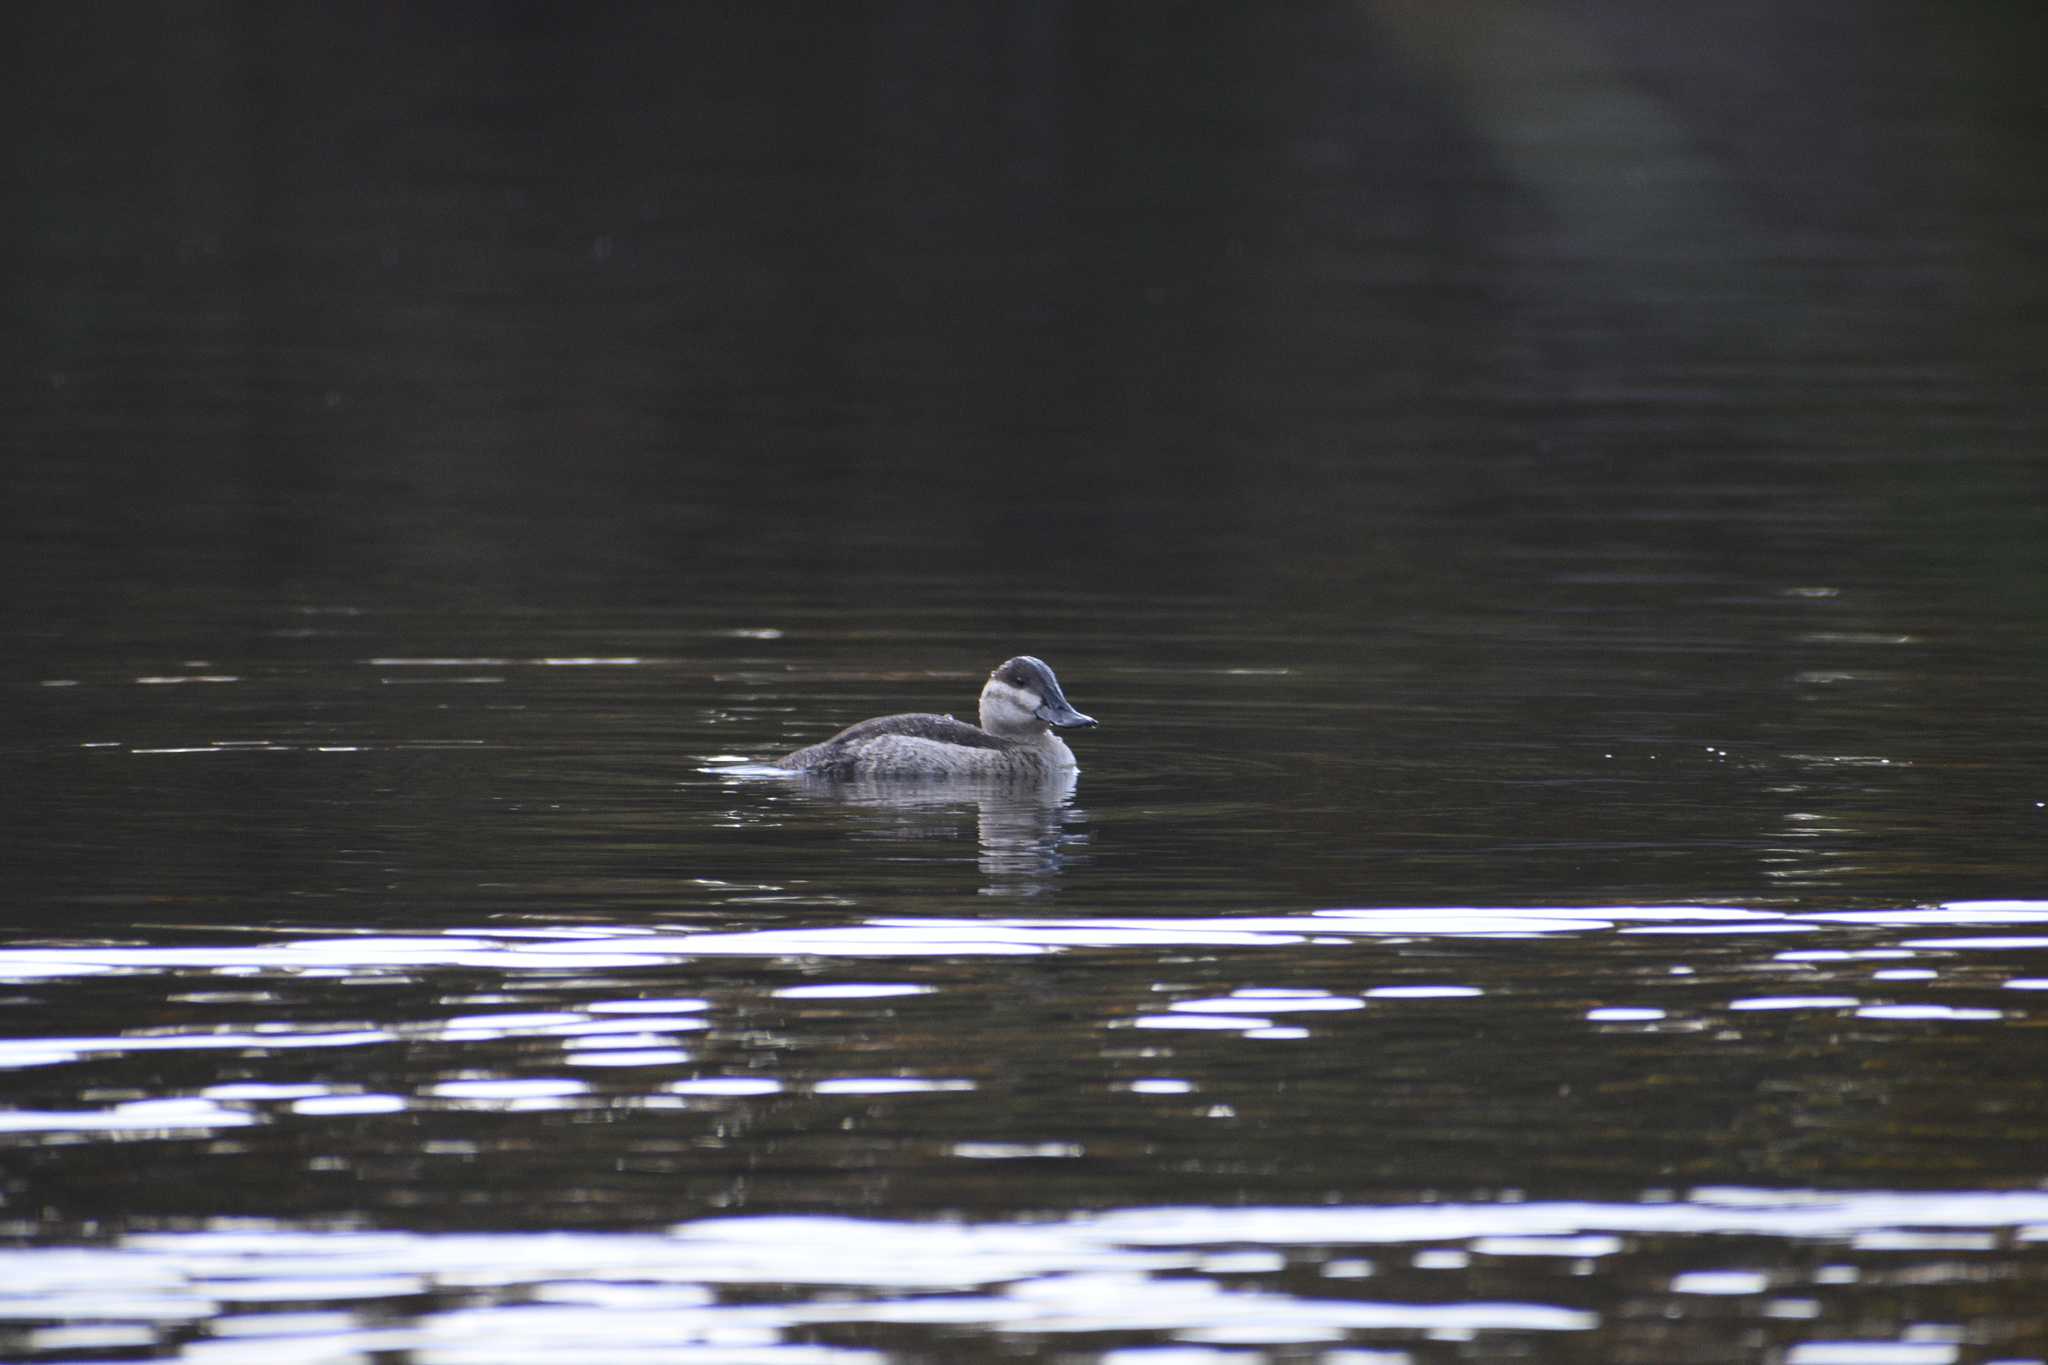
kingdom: Animalia
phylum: Chordata
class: Aves
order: Anseriformes
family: Anatidae
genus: Oxyura
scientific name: Oxyura jamaicensis
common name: Ruddy duck
